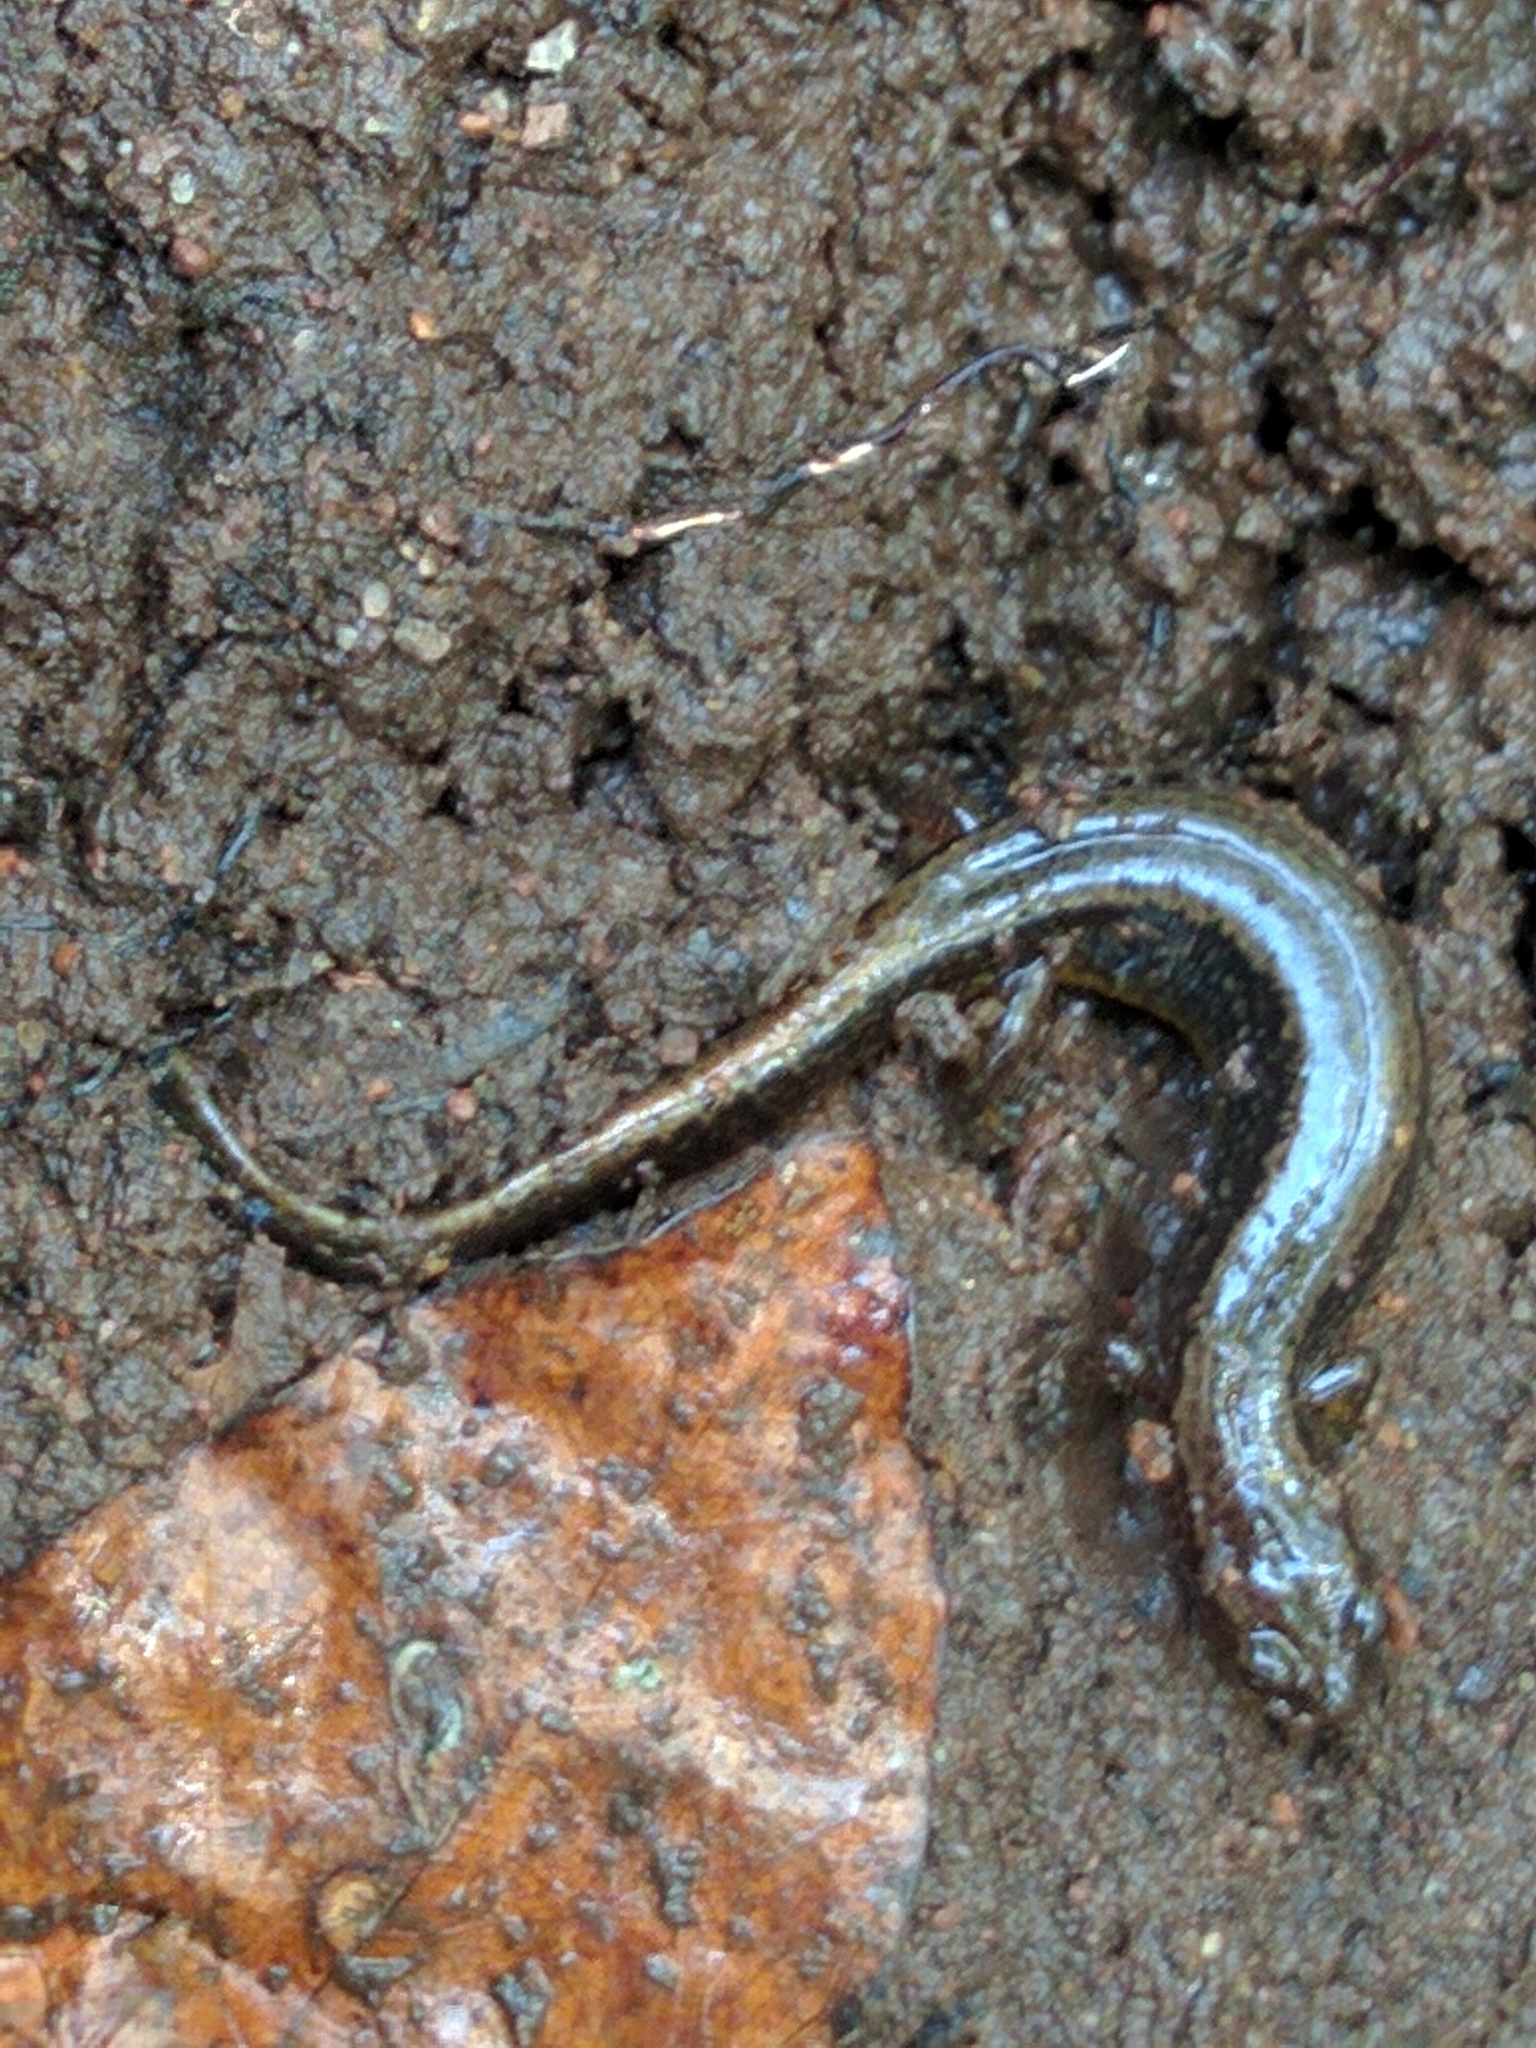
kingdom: Animalia
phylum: Chordata
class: Amphibia
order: Caudata
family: Plethodontidae
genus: Eurycea
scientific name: Eurycea bislineata
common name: Northern two-lined salamander
